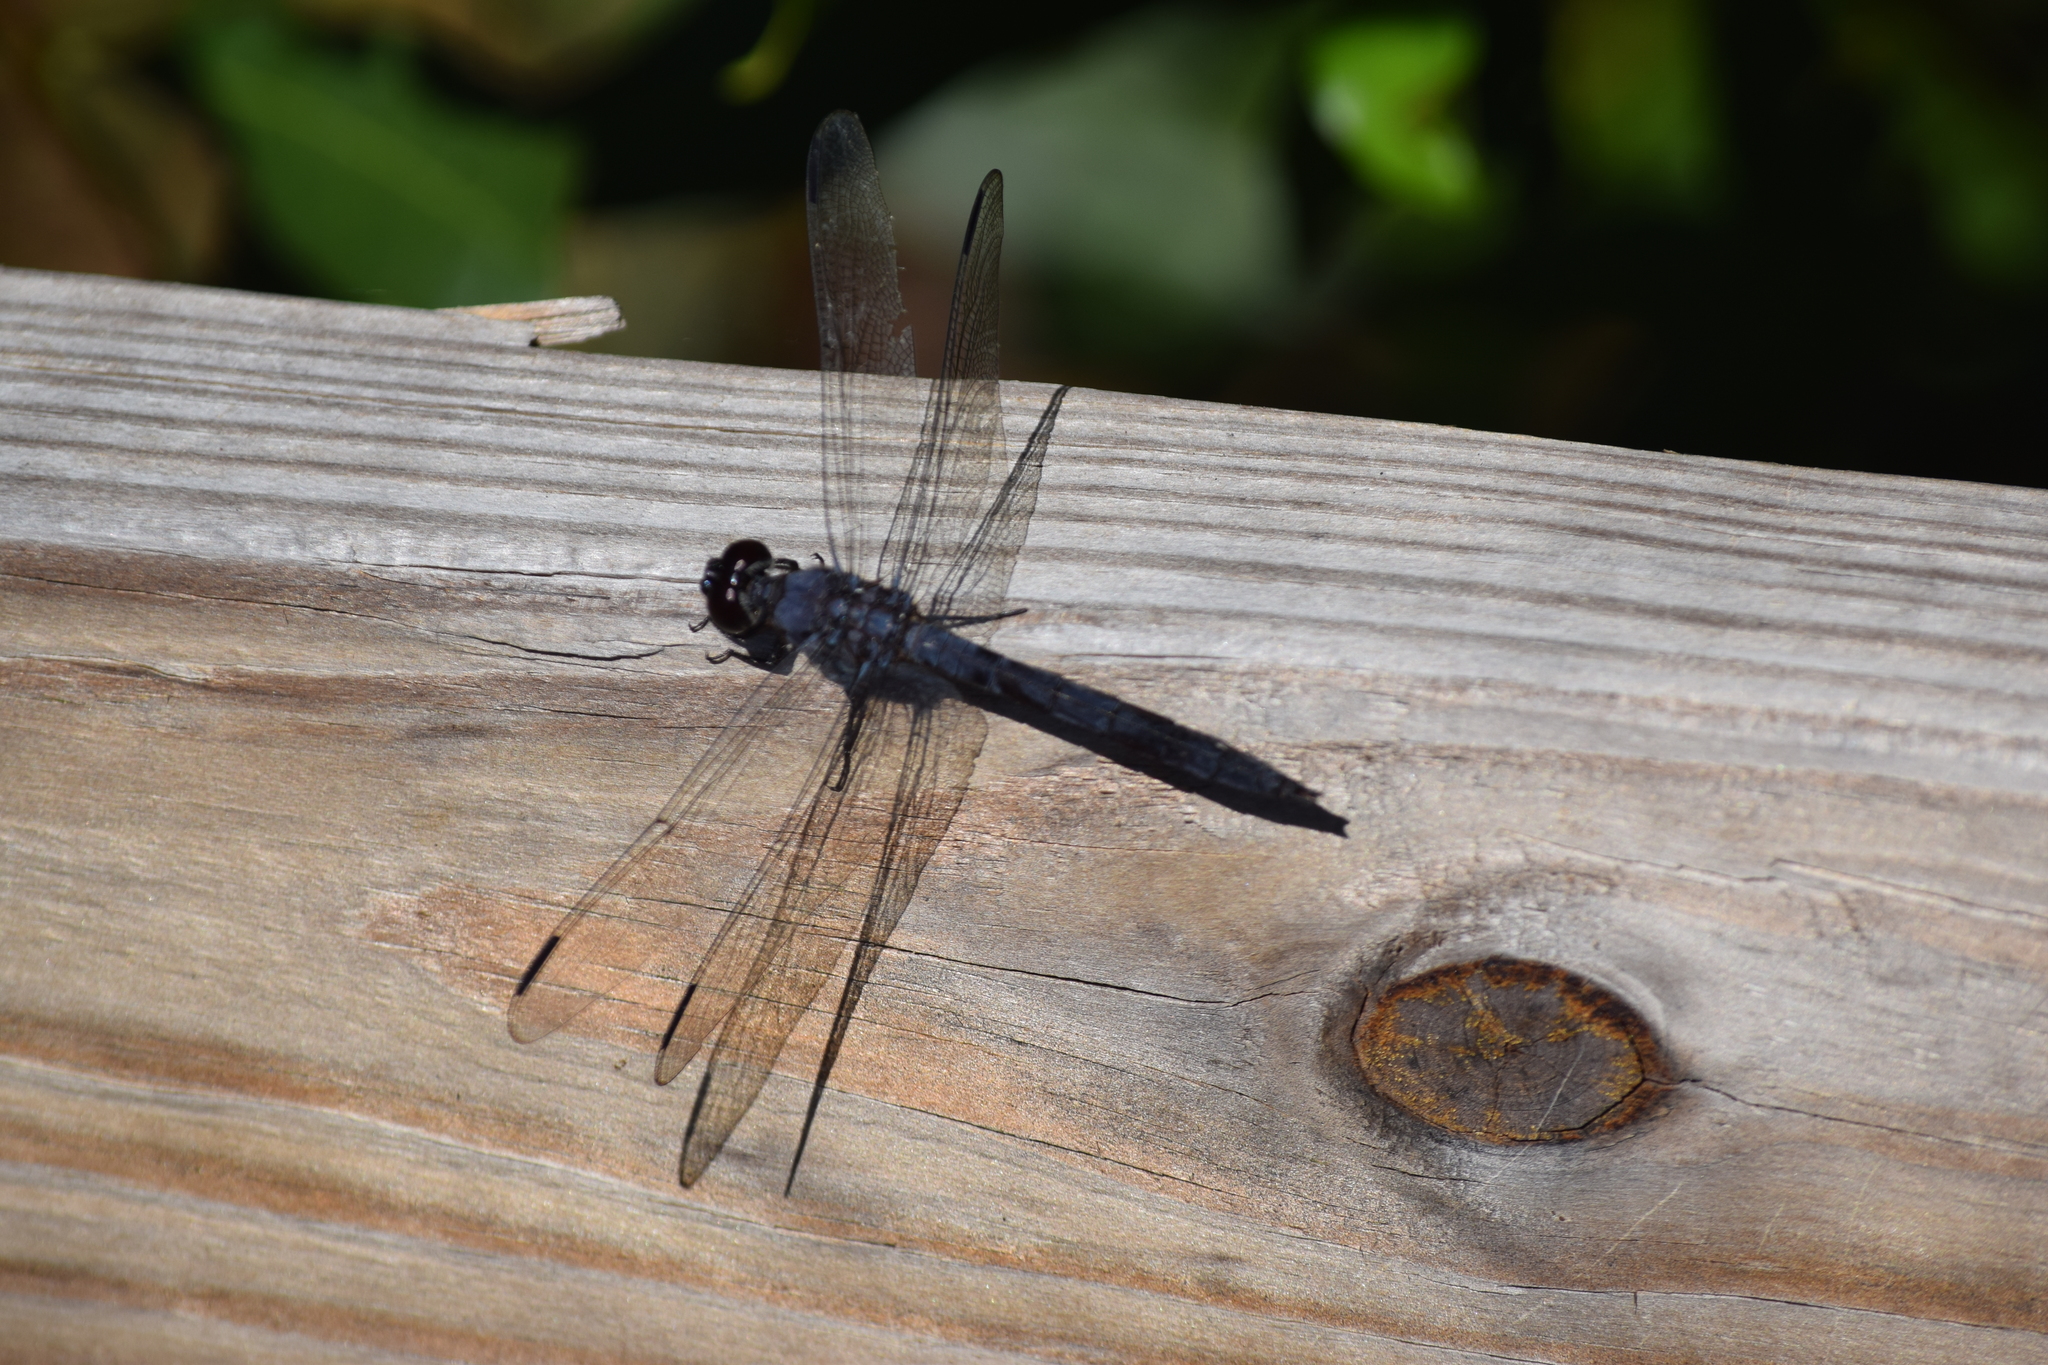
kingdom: Animalia
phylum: Arthropoda
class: Insecta
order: Odonata
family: Libellulidae
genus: Libellula
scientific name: Libellula incesta
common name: Slaty skimmer
